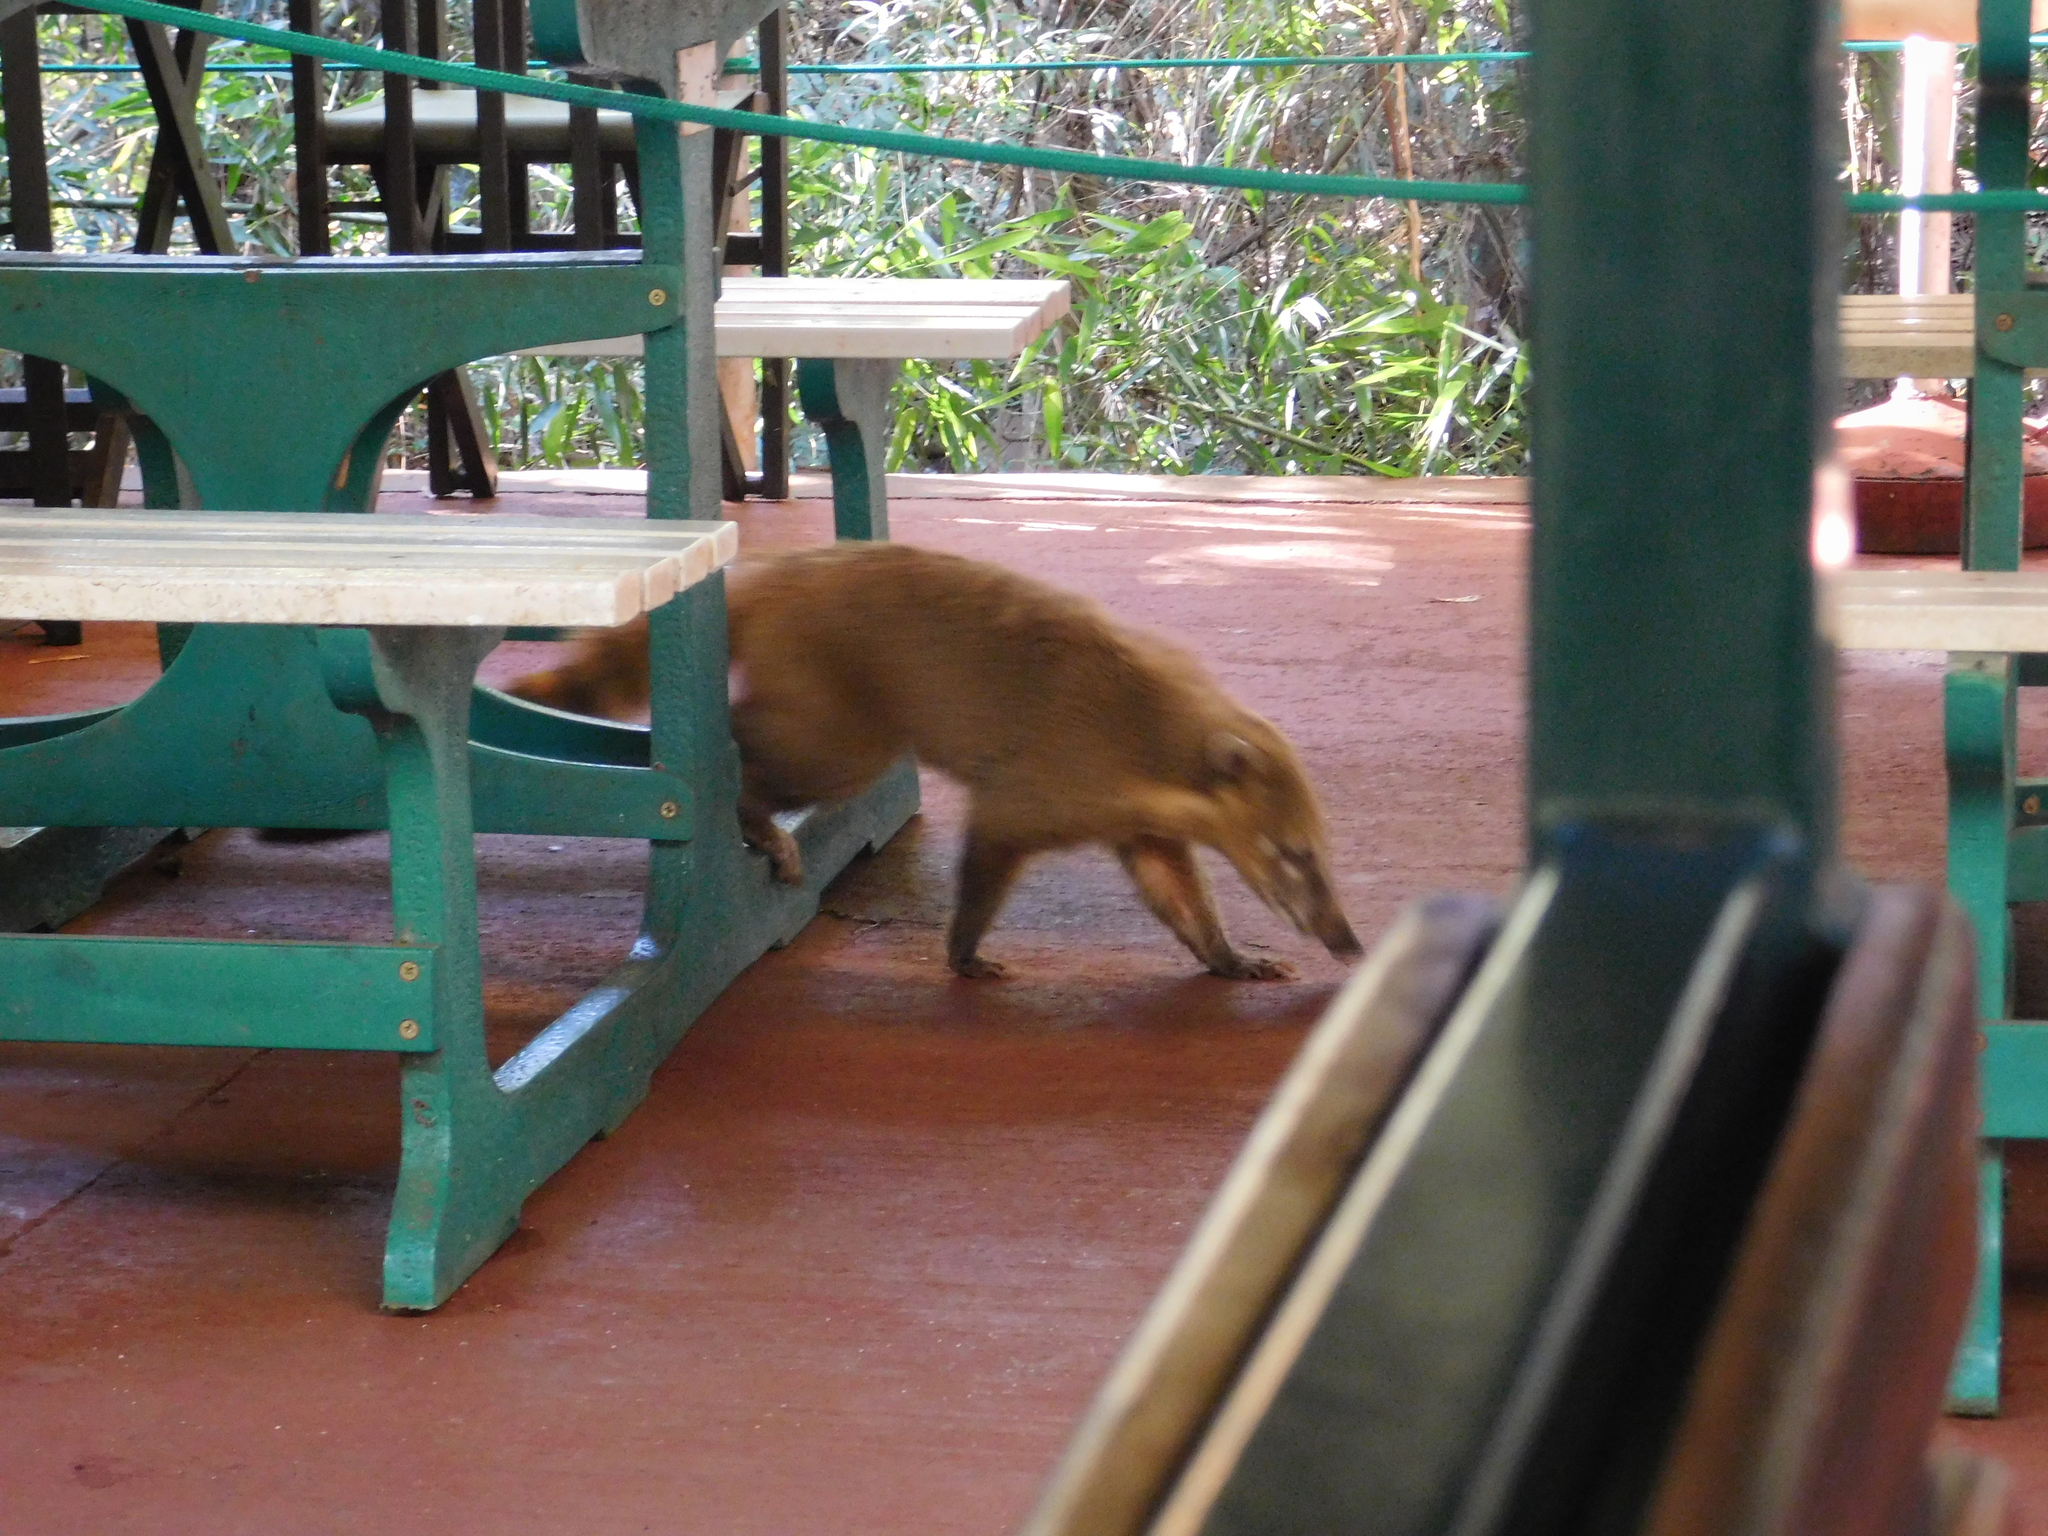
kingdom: Animalia
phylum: Chordata
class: Mammalia
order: Carnivora
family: Procyonidae
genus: Nasua
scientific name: Nasua nasua
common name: South american coati
